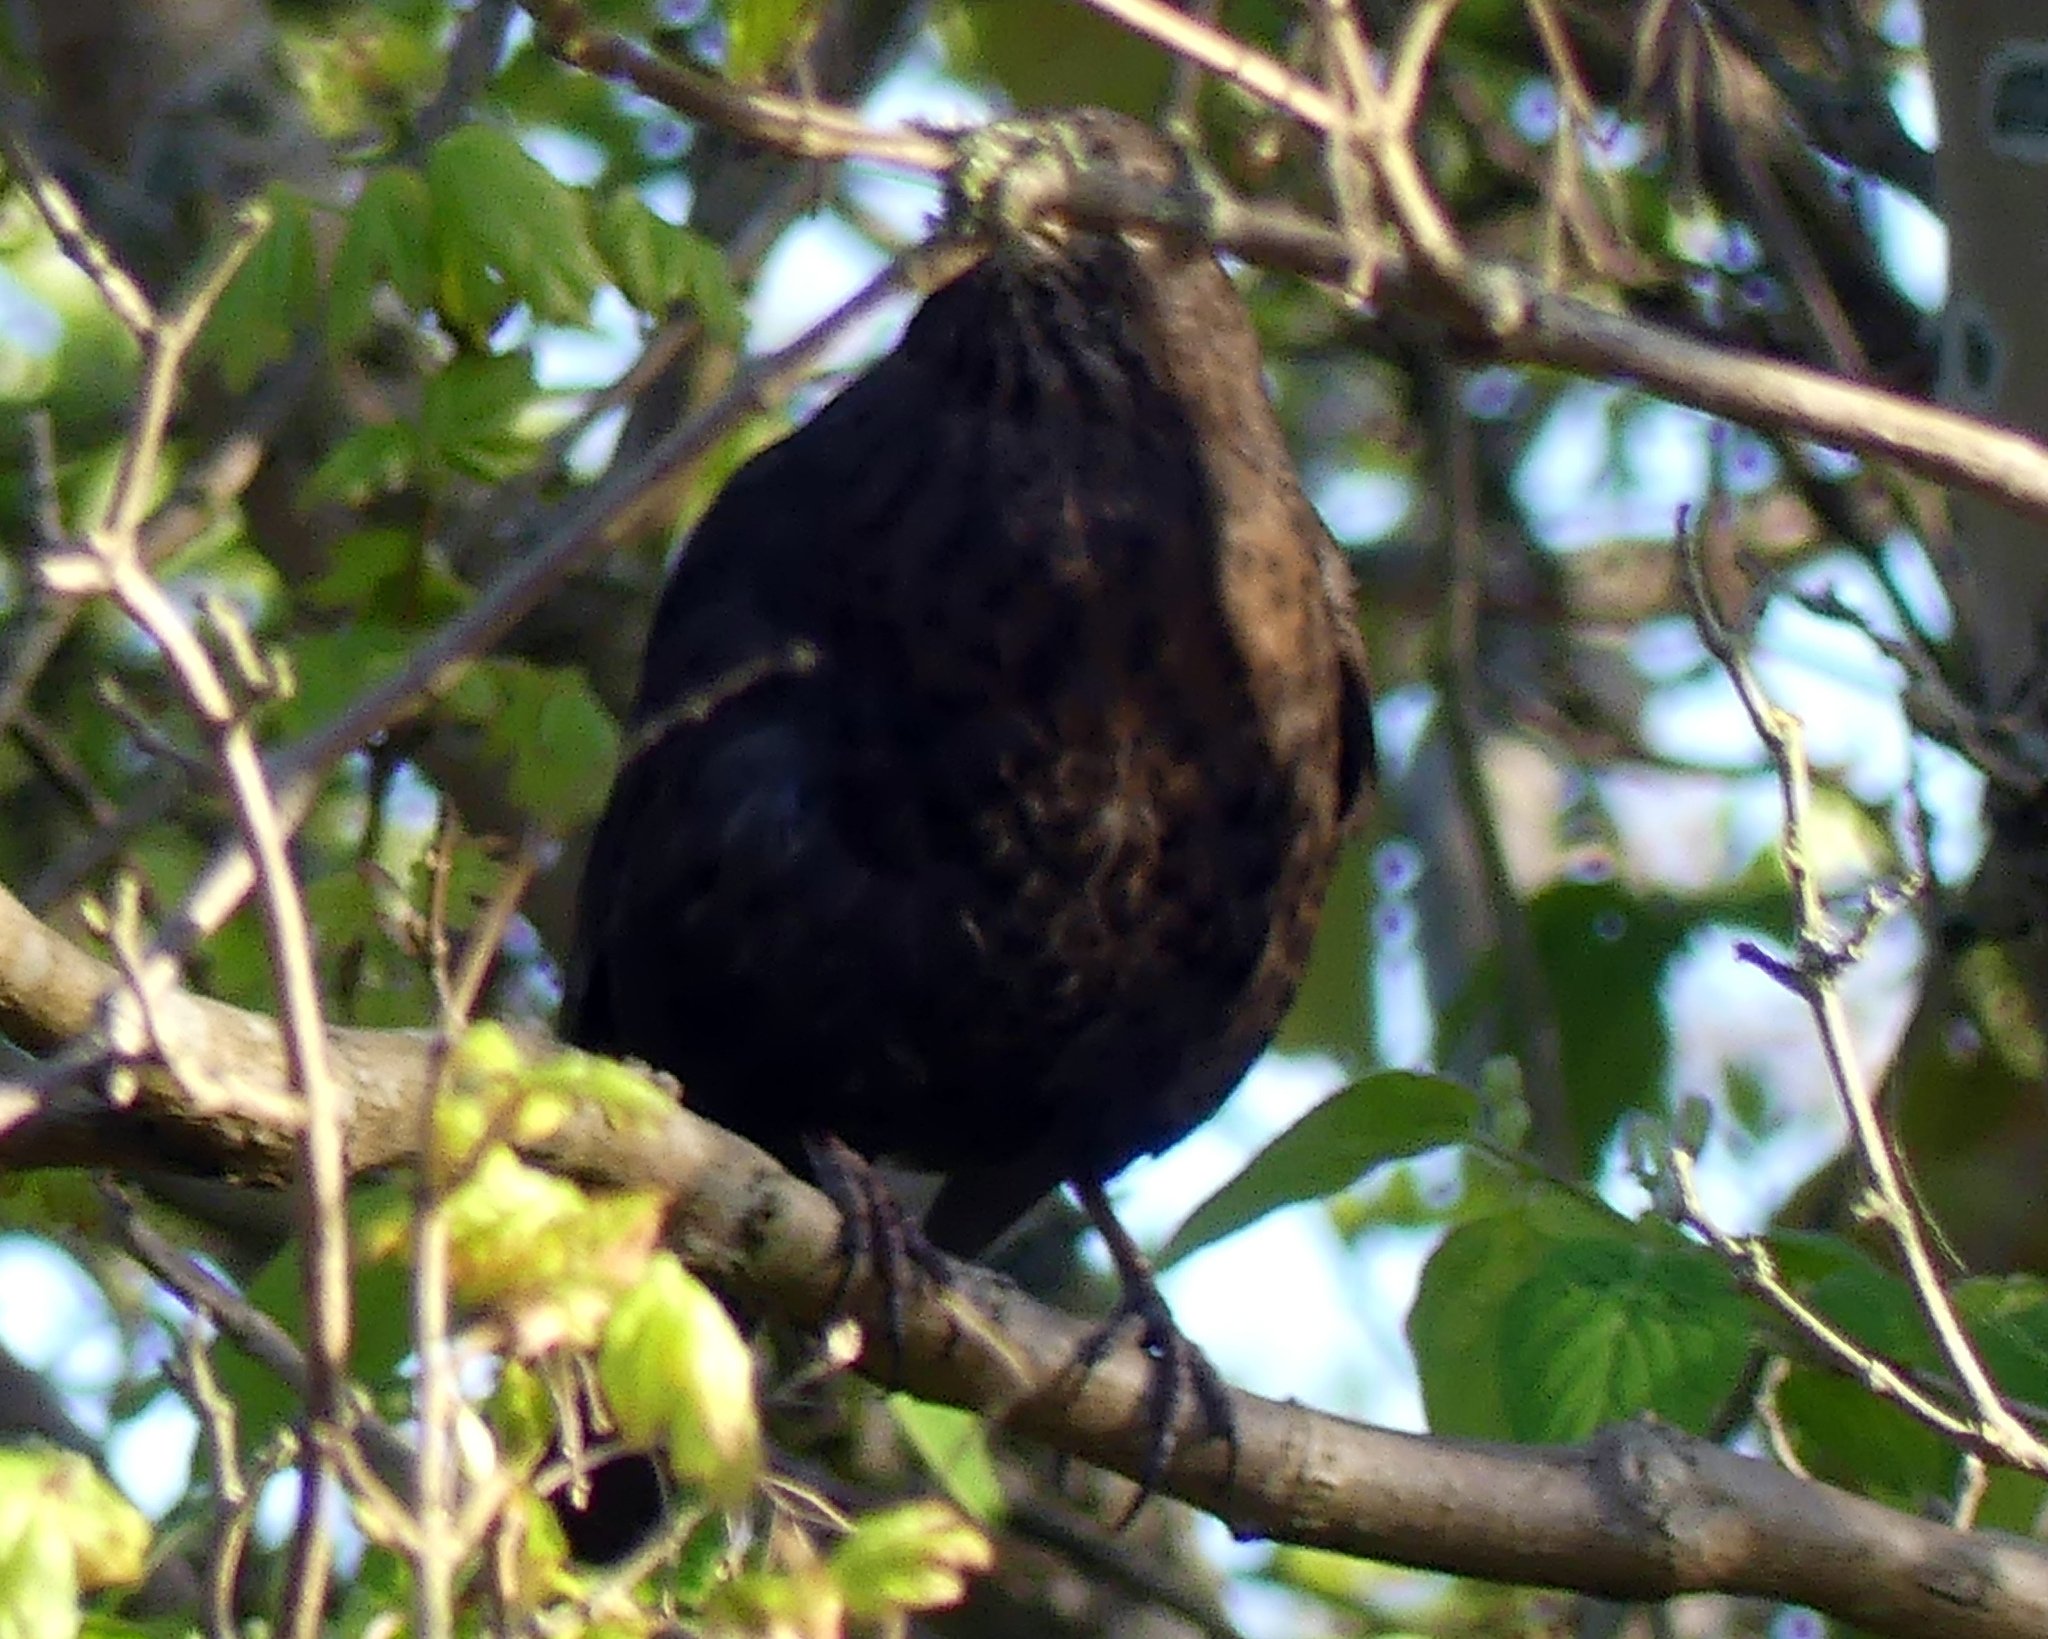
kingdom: Animalia
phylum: Chordata
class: Aves
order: Passeriformes
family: Turdidae
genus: Turdus
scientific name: Turdus merula
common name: Common blackbird
